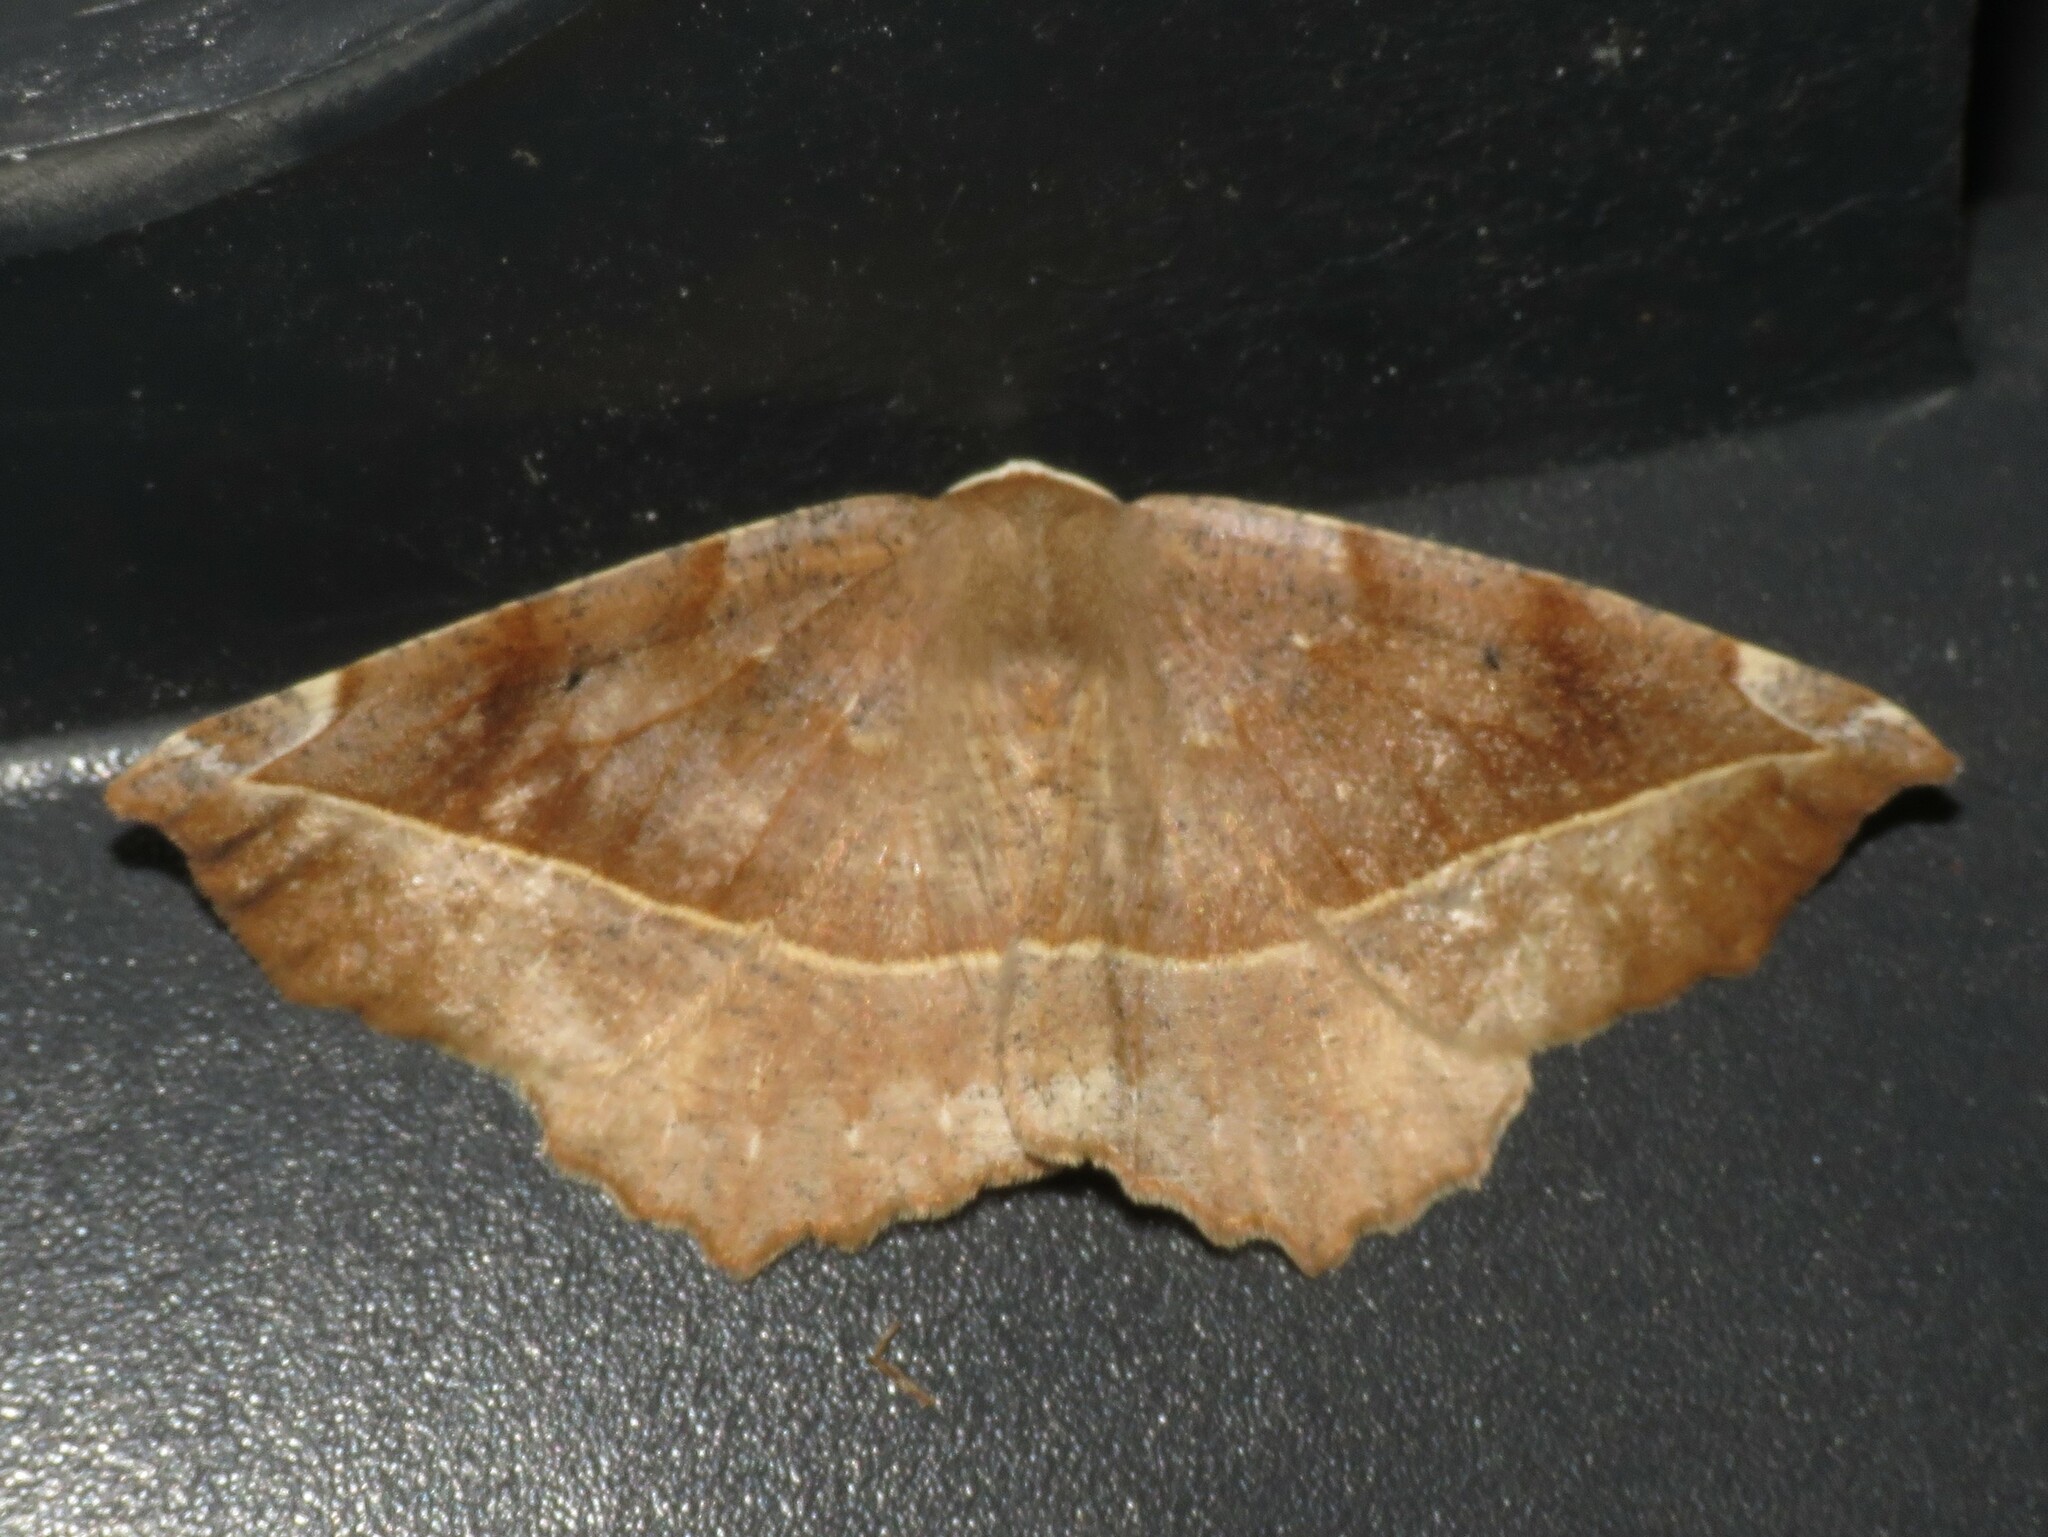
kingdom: Animalia
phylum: Arthropoda
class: Insecta
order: Lepidoptera
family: Geometridae
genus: Eutrapela
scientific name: Eutrapela clemataria
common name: Curved-toothed geometer
